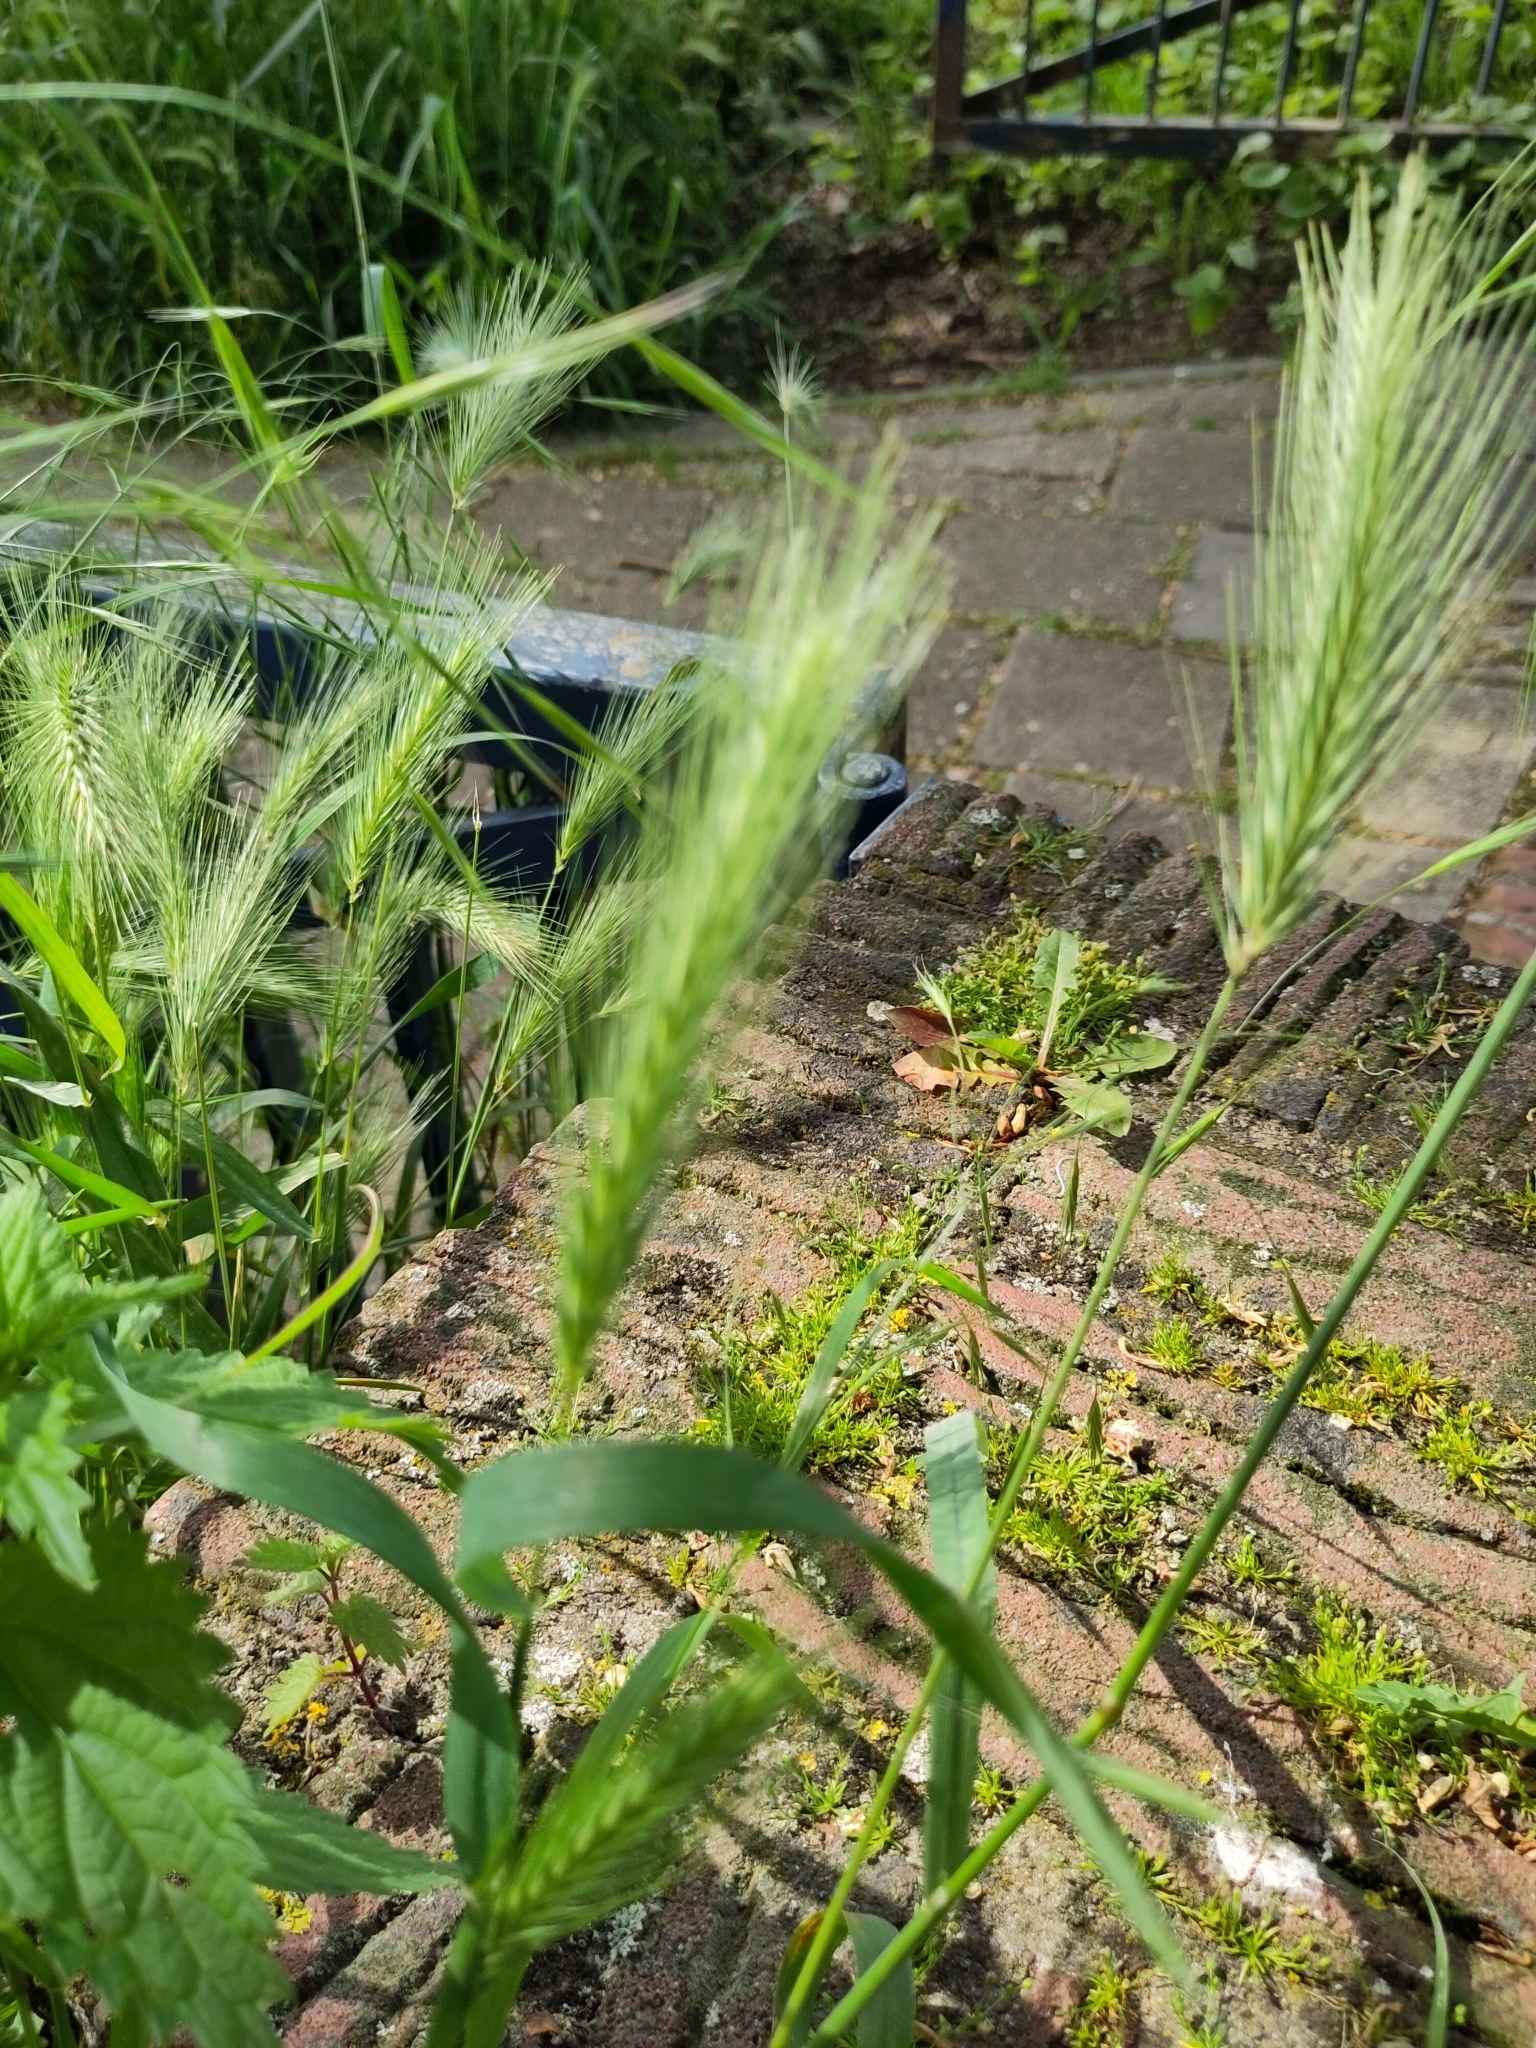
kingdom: Plantae
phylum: Tracheophyta
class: Liliopsida
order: Poales
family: Poaceae
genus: Hordeum
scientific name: Hordeum murinum
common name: Wall barley
